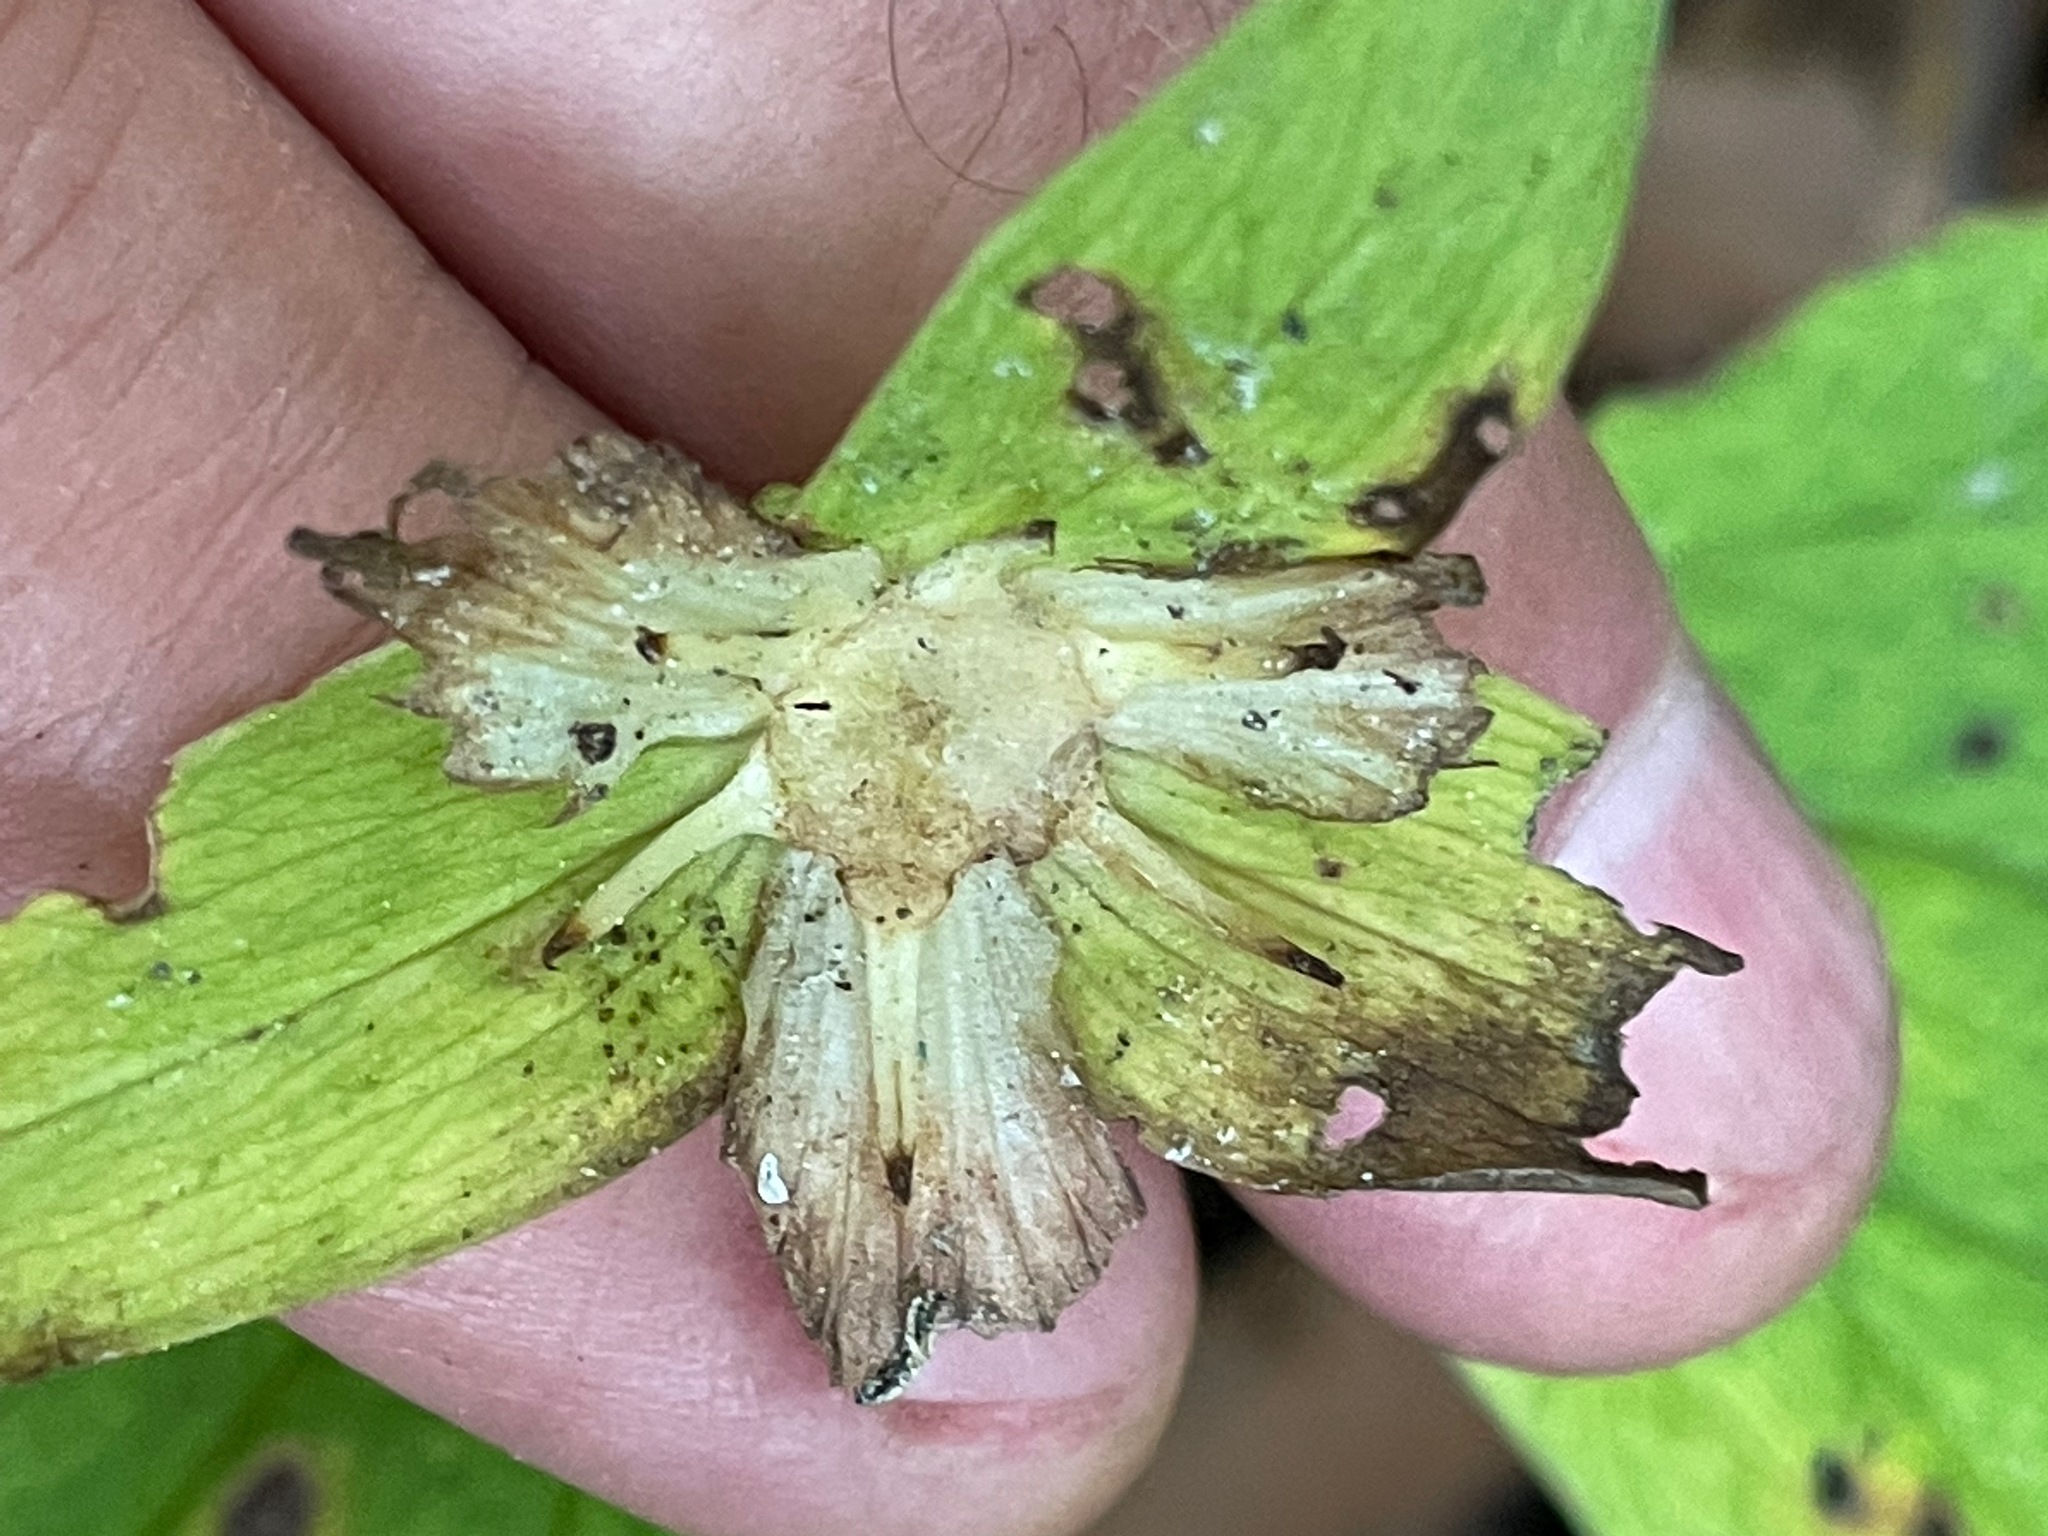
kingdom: Plantae
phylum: Tracheophyta
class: Liliopsida
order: Liliales
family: Melanthiaceae
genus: Trillium
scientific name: Trillium grandiflorum
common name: Great white trillium
